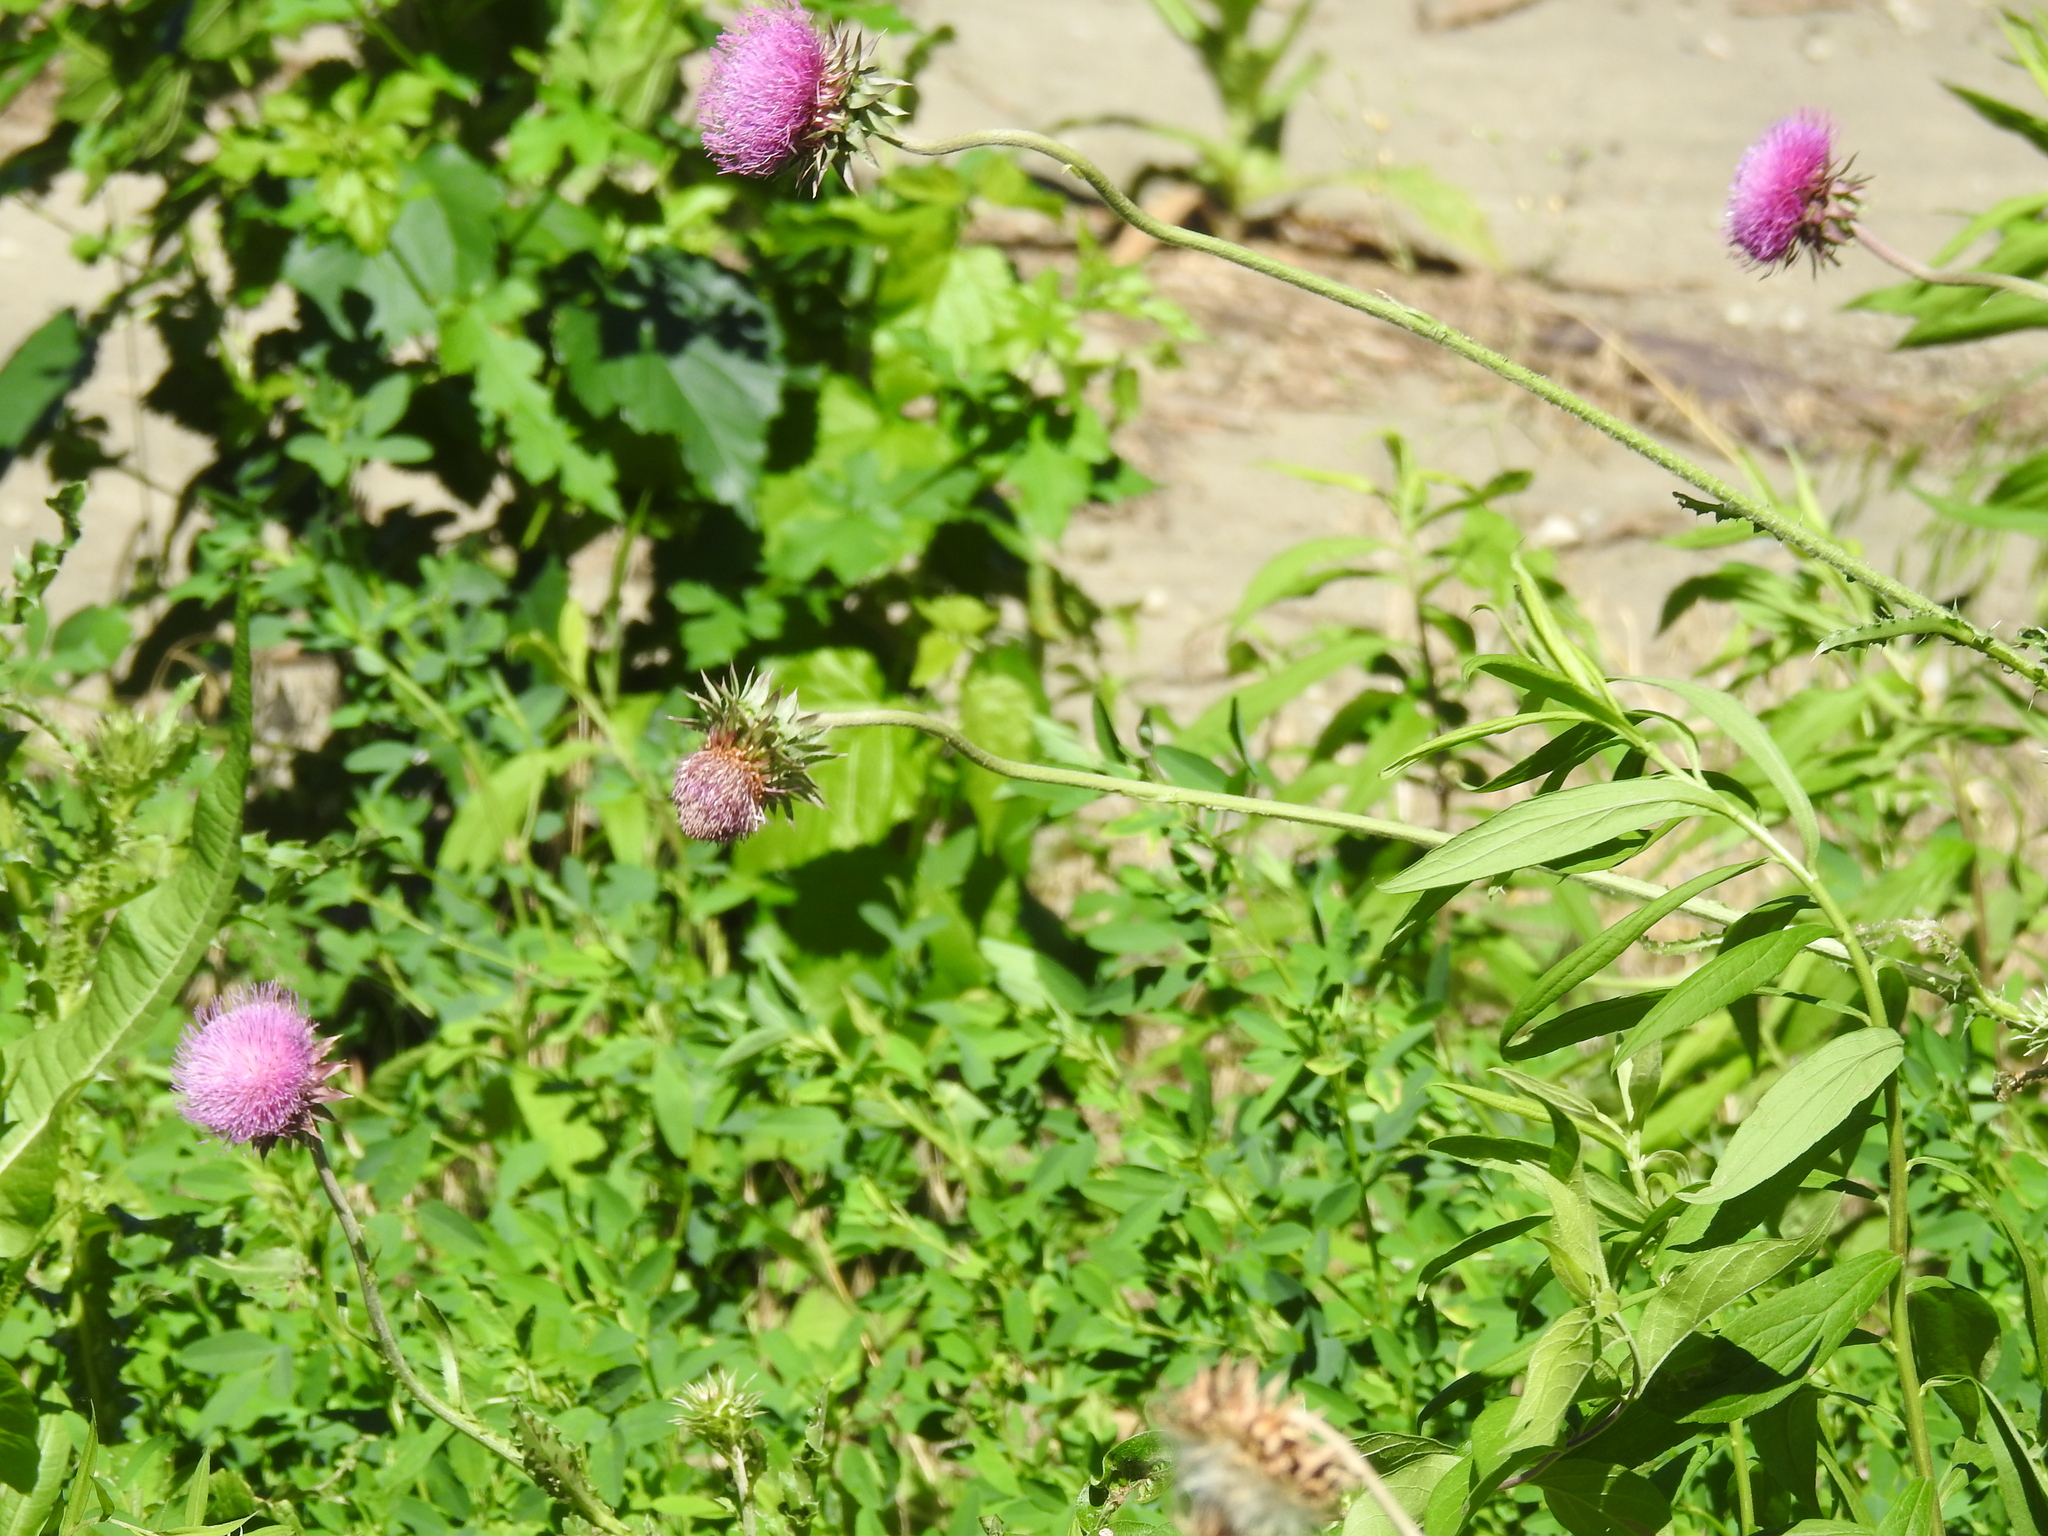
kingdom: Plantae
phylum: Tracheophyta
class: Magnoliopsida
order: Asterales
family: Asteraceae
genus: Carduus
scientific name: Carduus nutans
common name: Musk thistle
